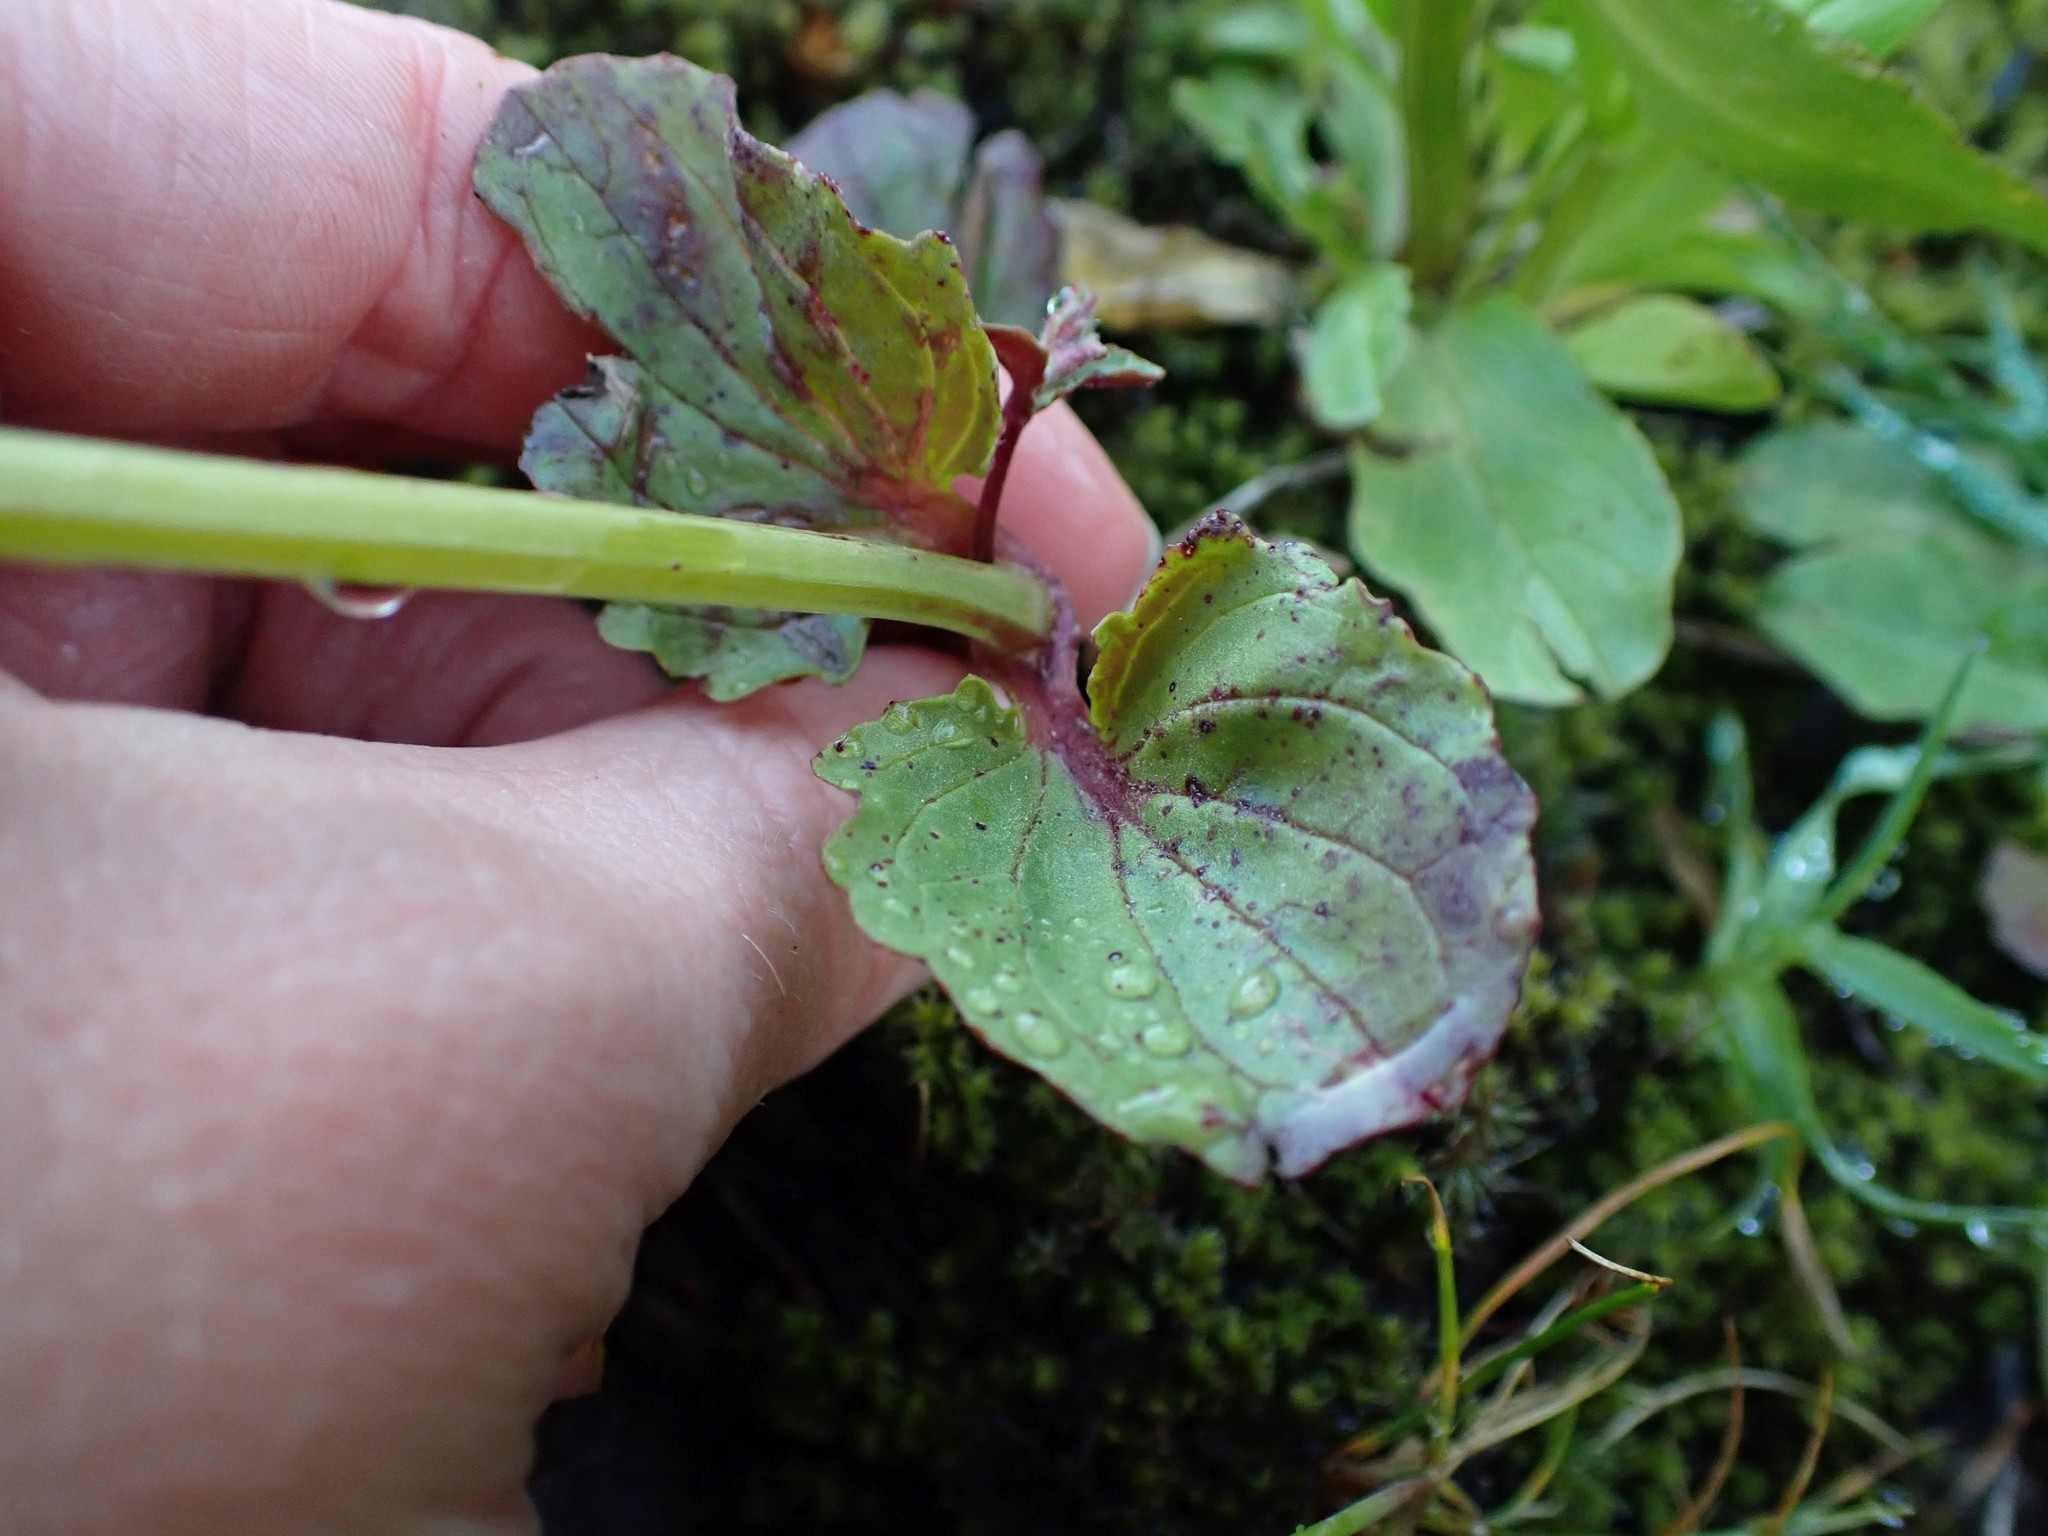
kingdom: Plantae
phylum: Tracheophyta
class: Magnoliopsida
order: Lamiales
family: Phrymaceae
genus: Erythranthe
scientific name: Erythranthe guttata
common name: Monkeyflower
